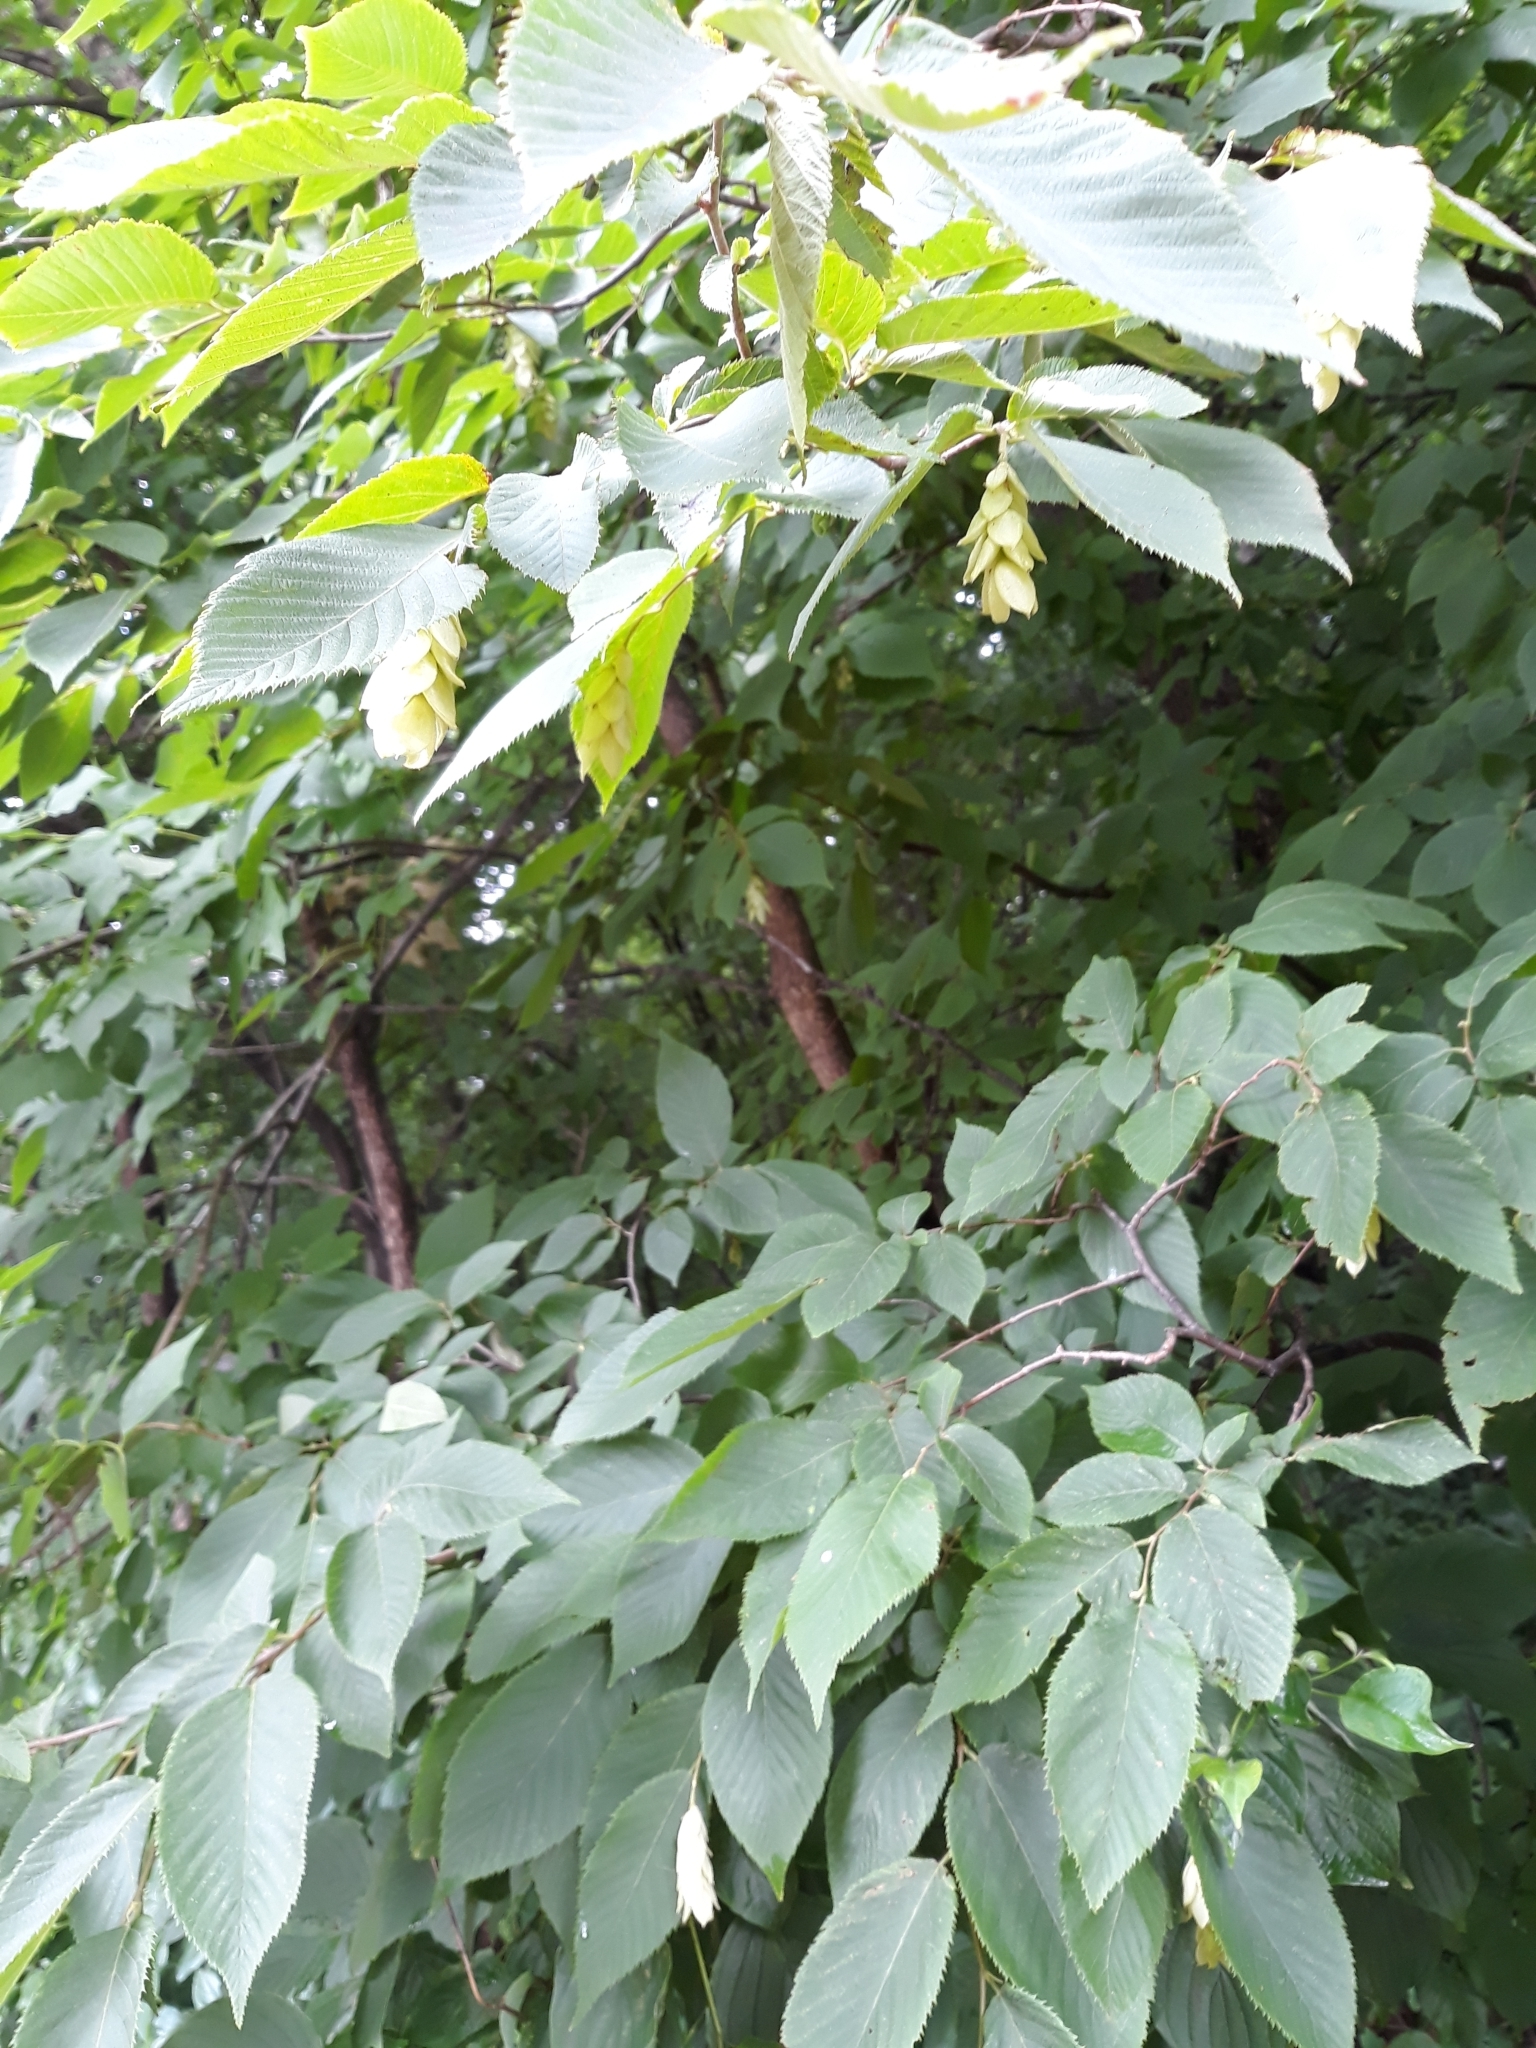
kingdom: Plantae
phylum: Tracheophyta
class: Magnoliopsida
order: Fagales
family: Betulaceae
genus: Ostrya
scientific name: Ostrya virginiana
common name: Ironwood
